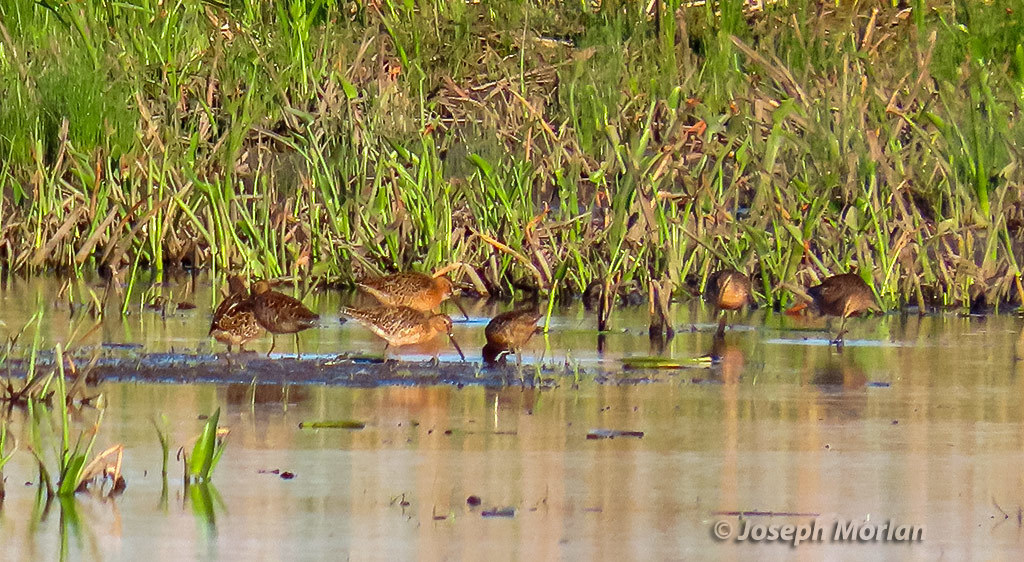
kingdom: Animalia
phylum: Chordata
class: Aves
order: Charadriiformes
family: Scolopacidae
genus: Limnodromus
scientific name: Limnodromus griseus
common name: Short-billed dowitcher
